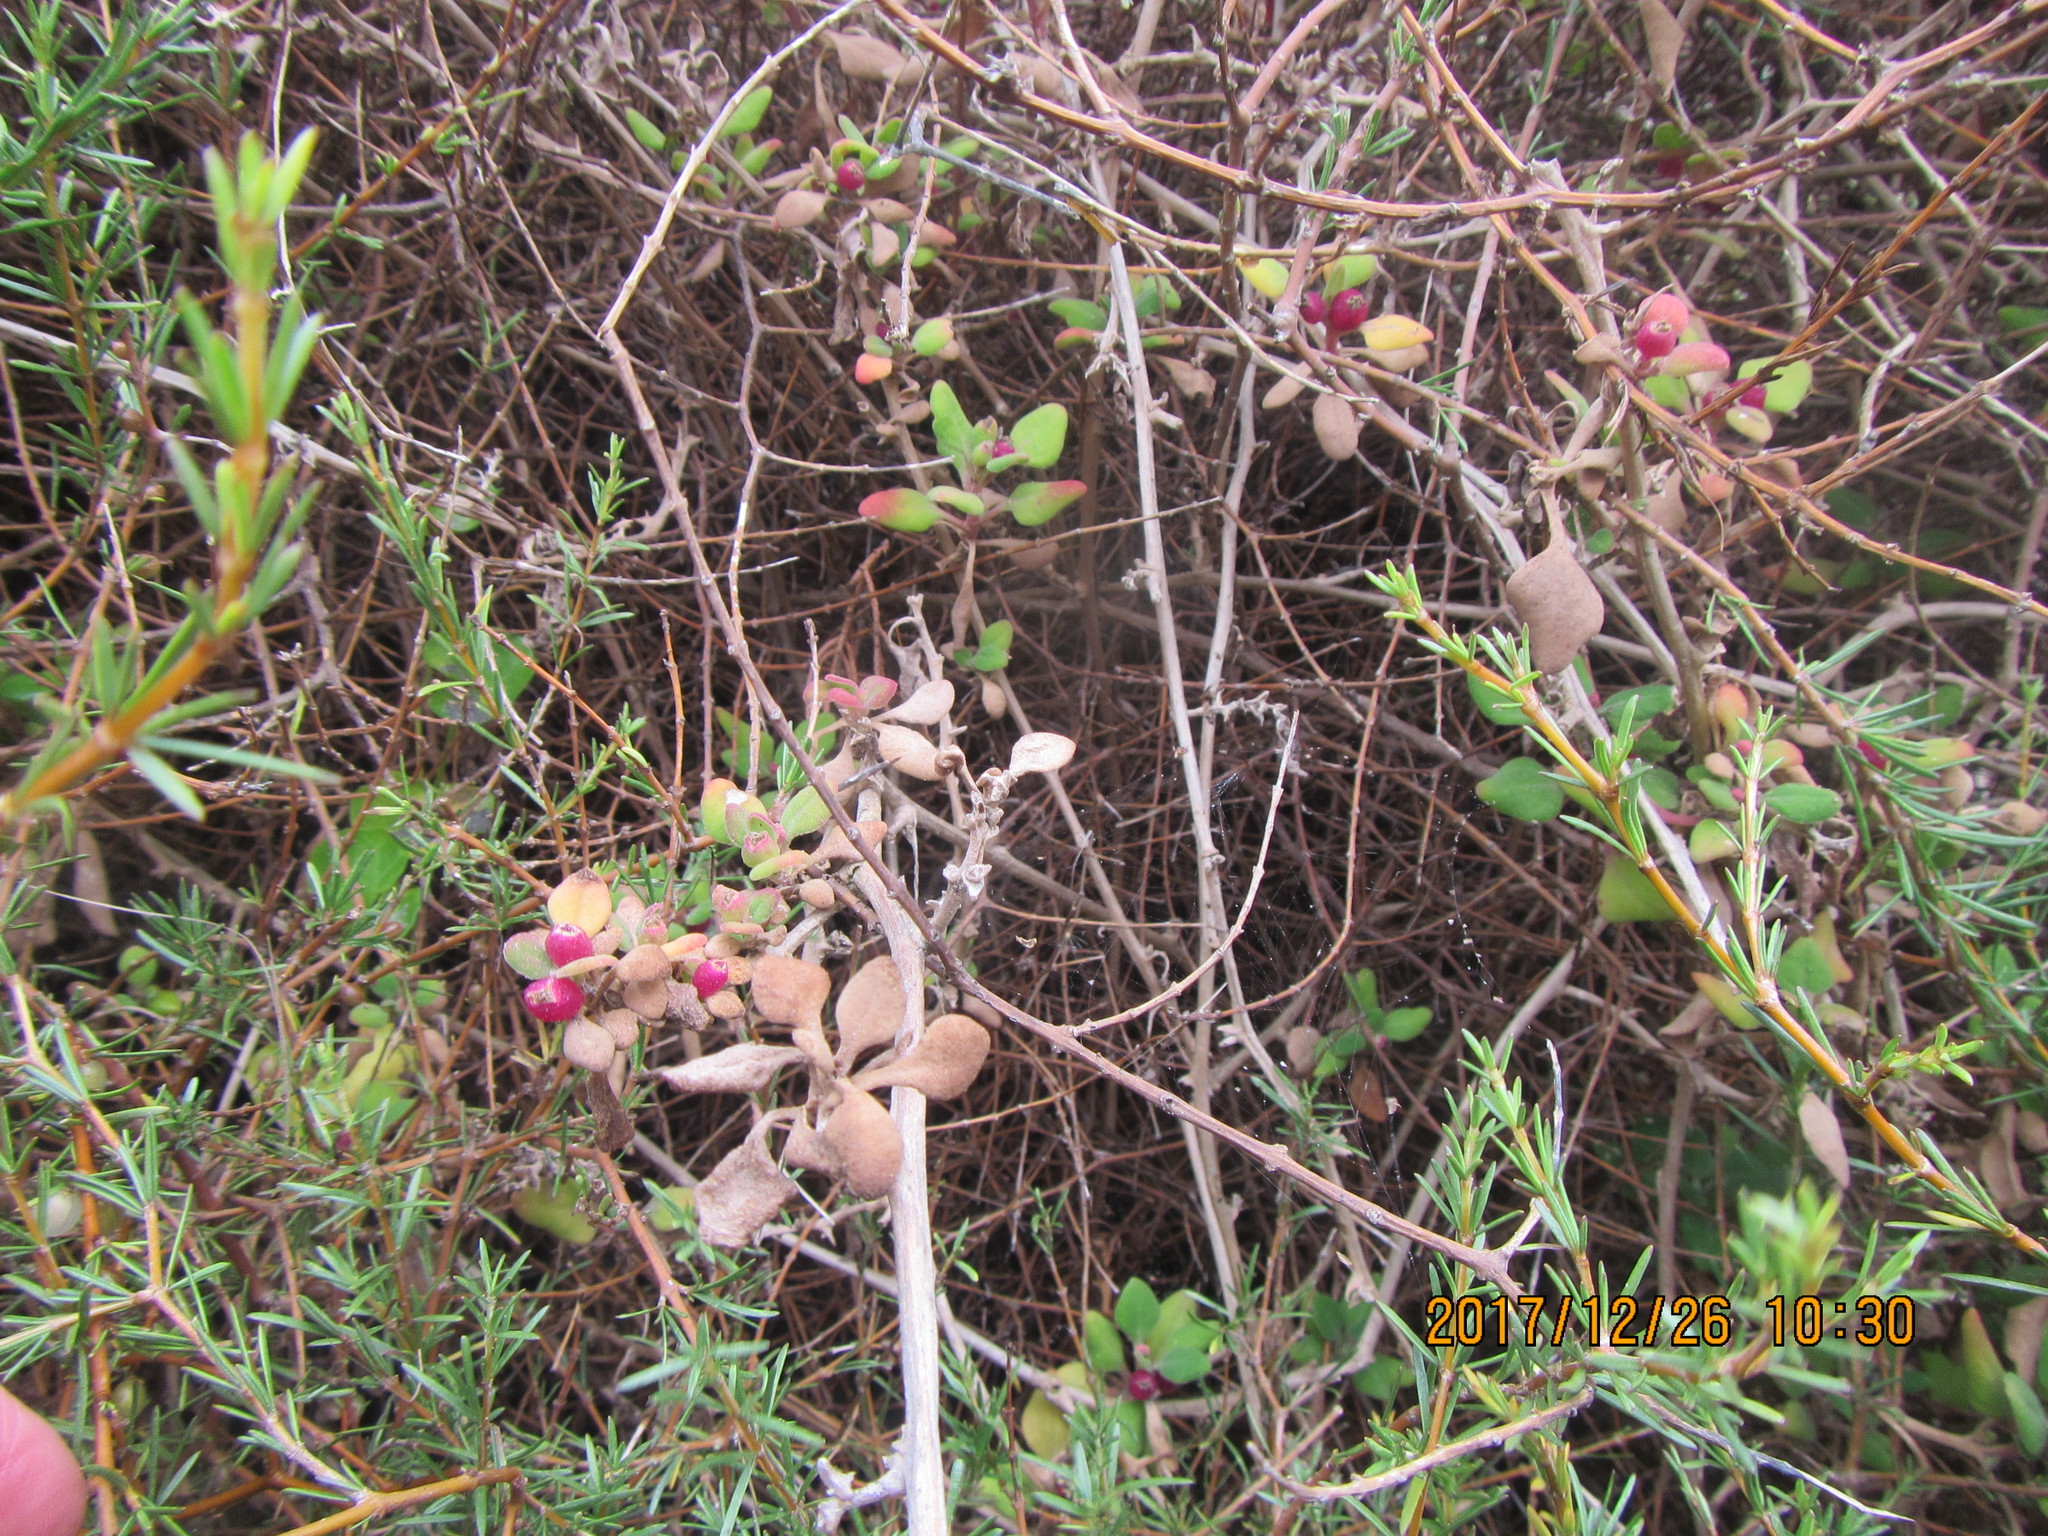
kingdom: Plantae
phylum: Tracheophyta
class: Magnoliopsida
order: Caryophyllales
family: Aizoaceae
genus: Tetragonia
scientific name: Tetragonia implexicoma
